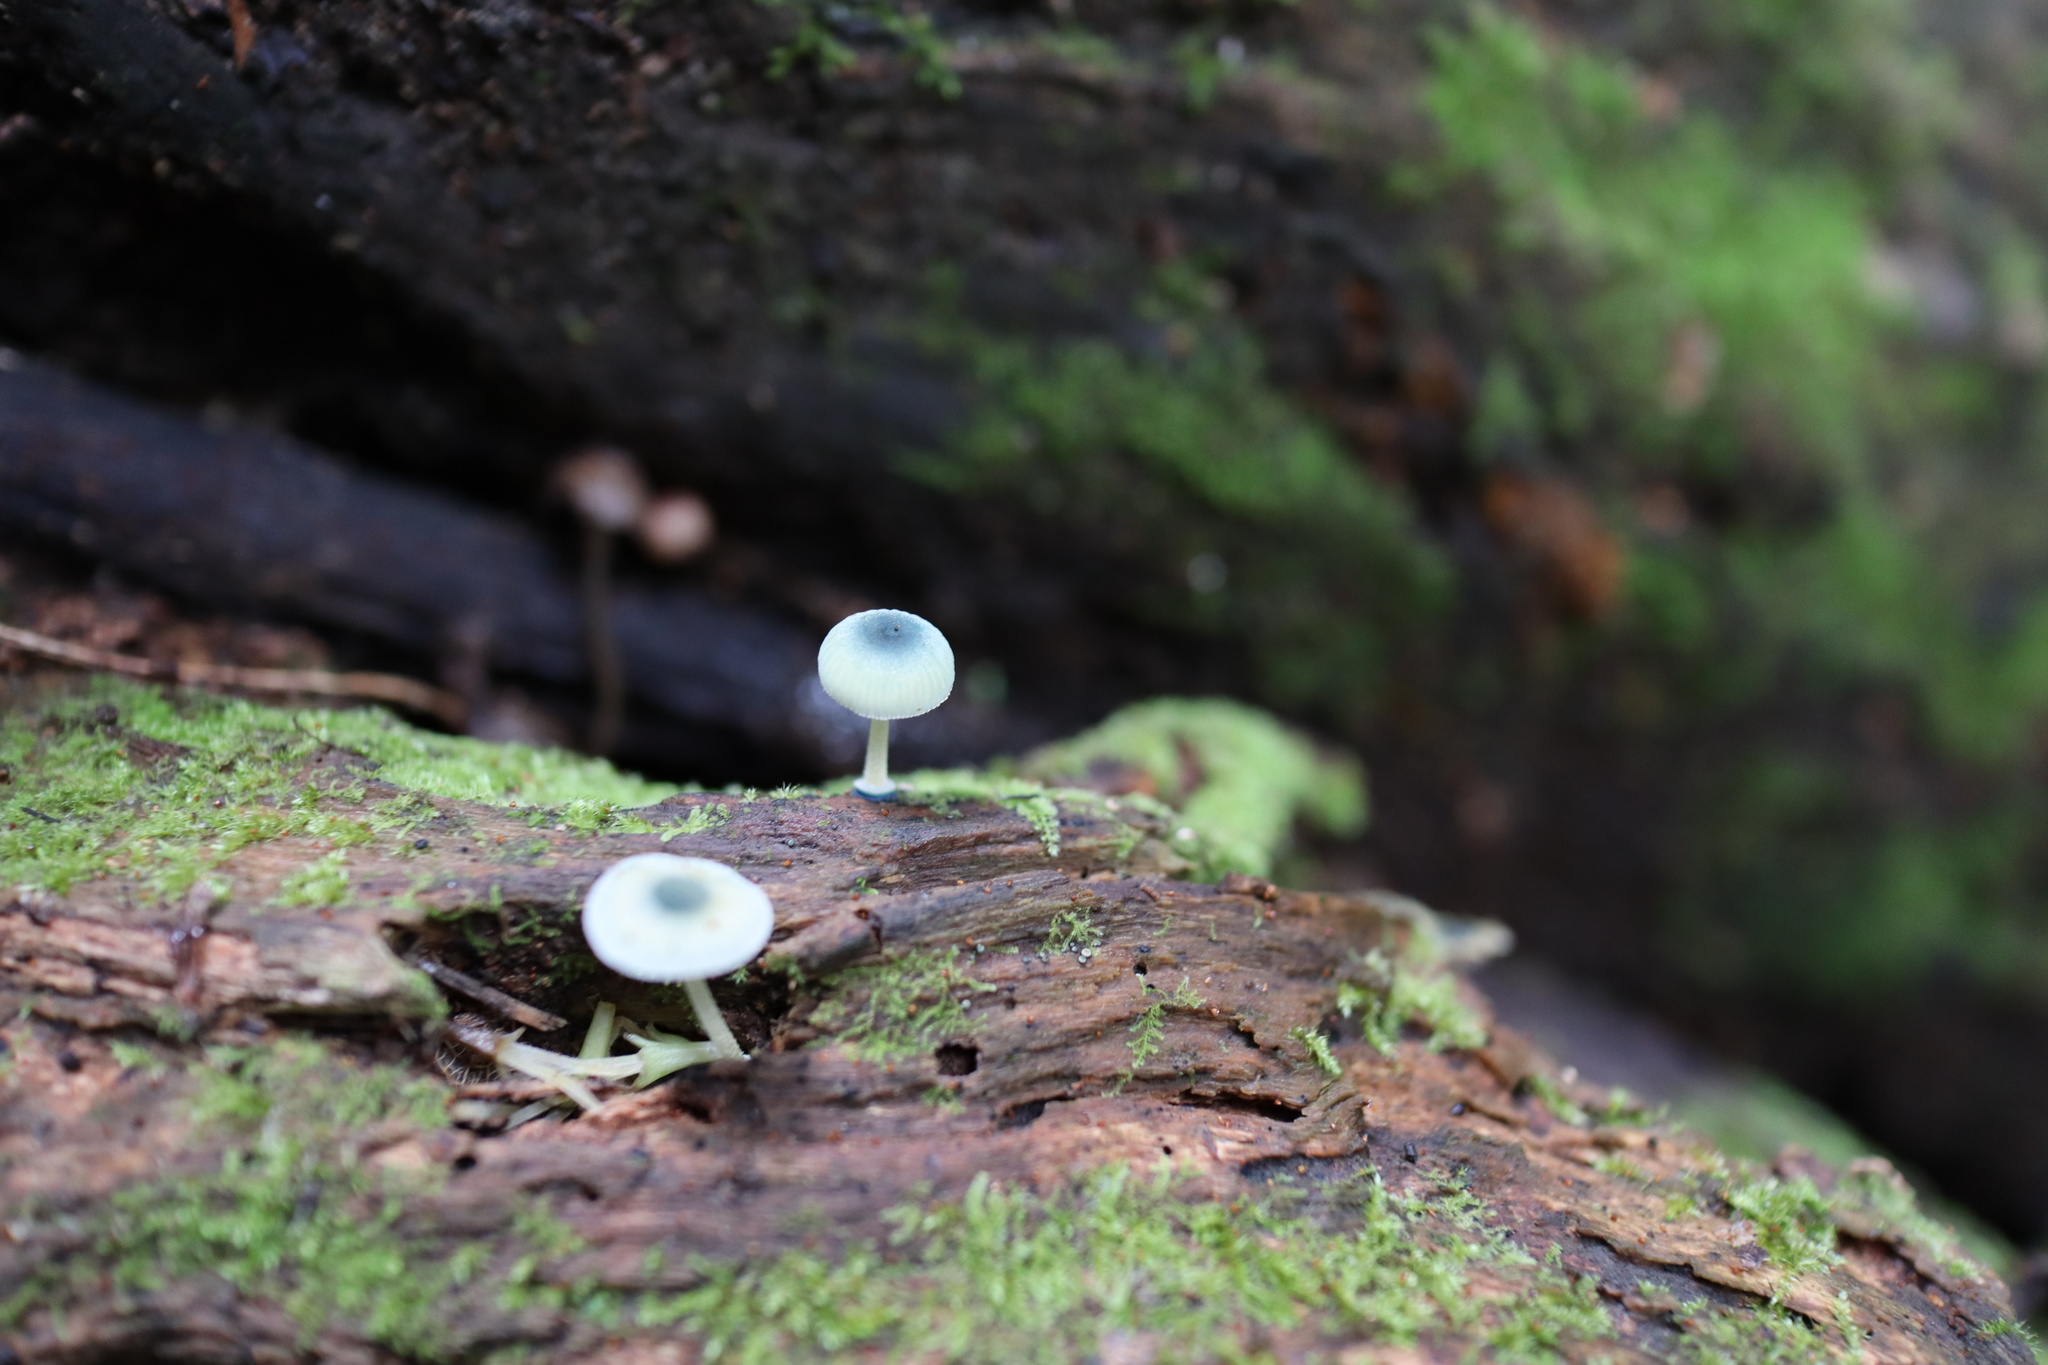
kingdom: Fungi
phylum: Basidiomycota
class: Agaricomycetes
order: Agaricales
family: Mycenaceae
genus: Mycena
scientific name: Mycena interrupta
